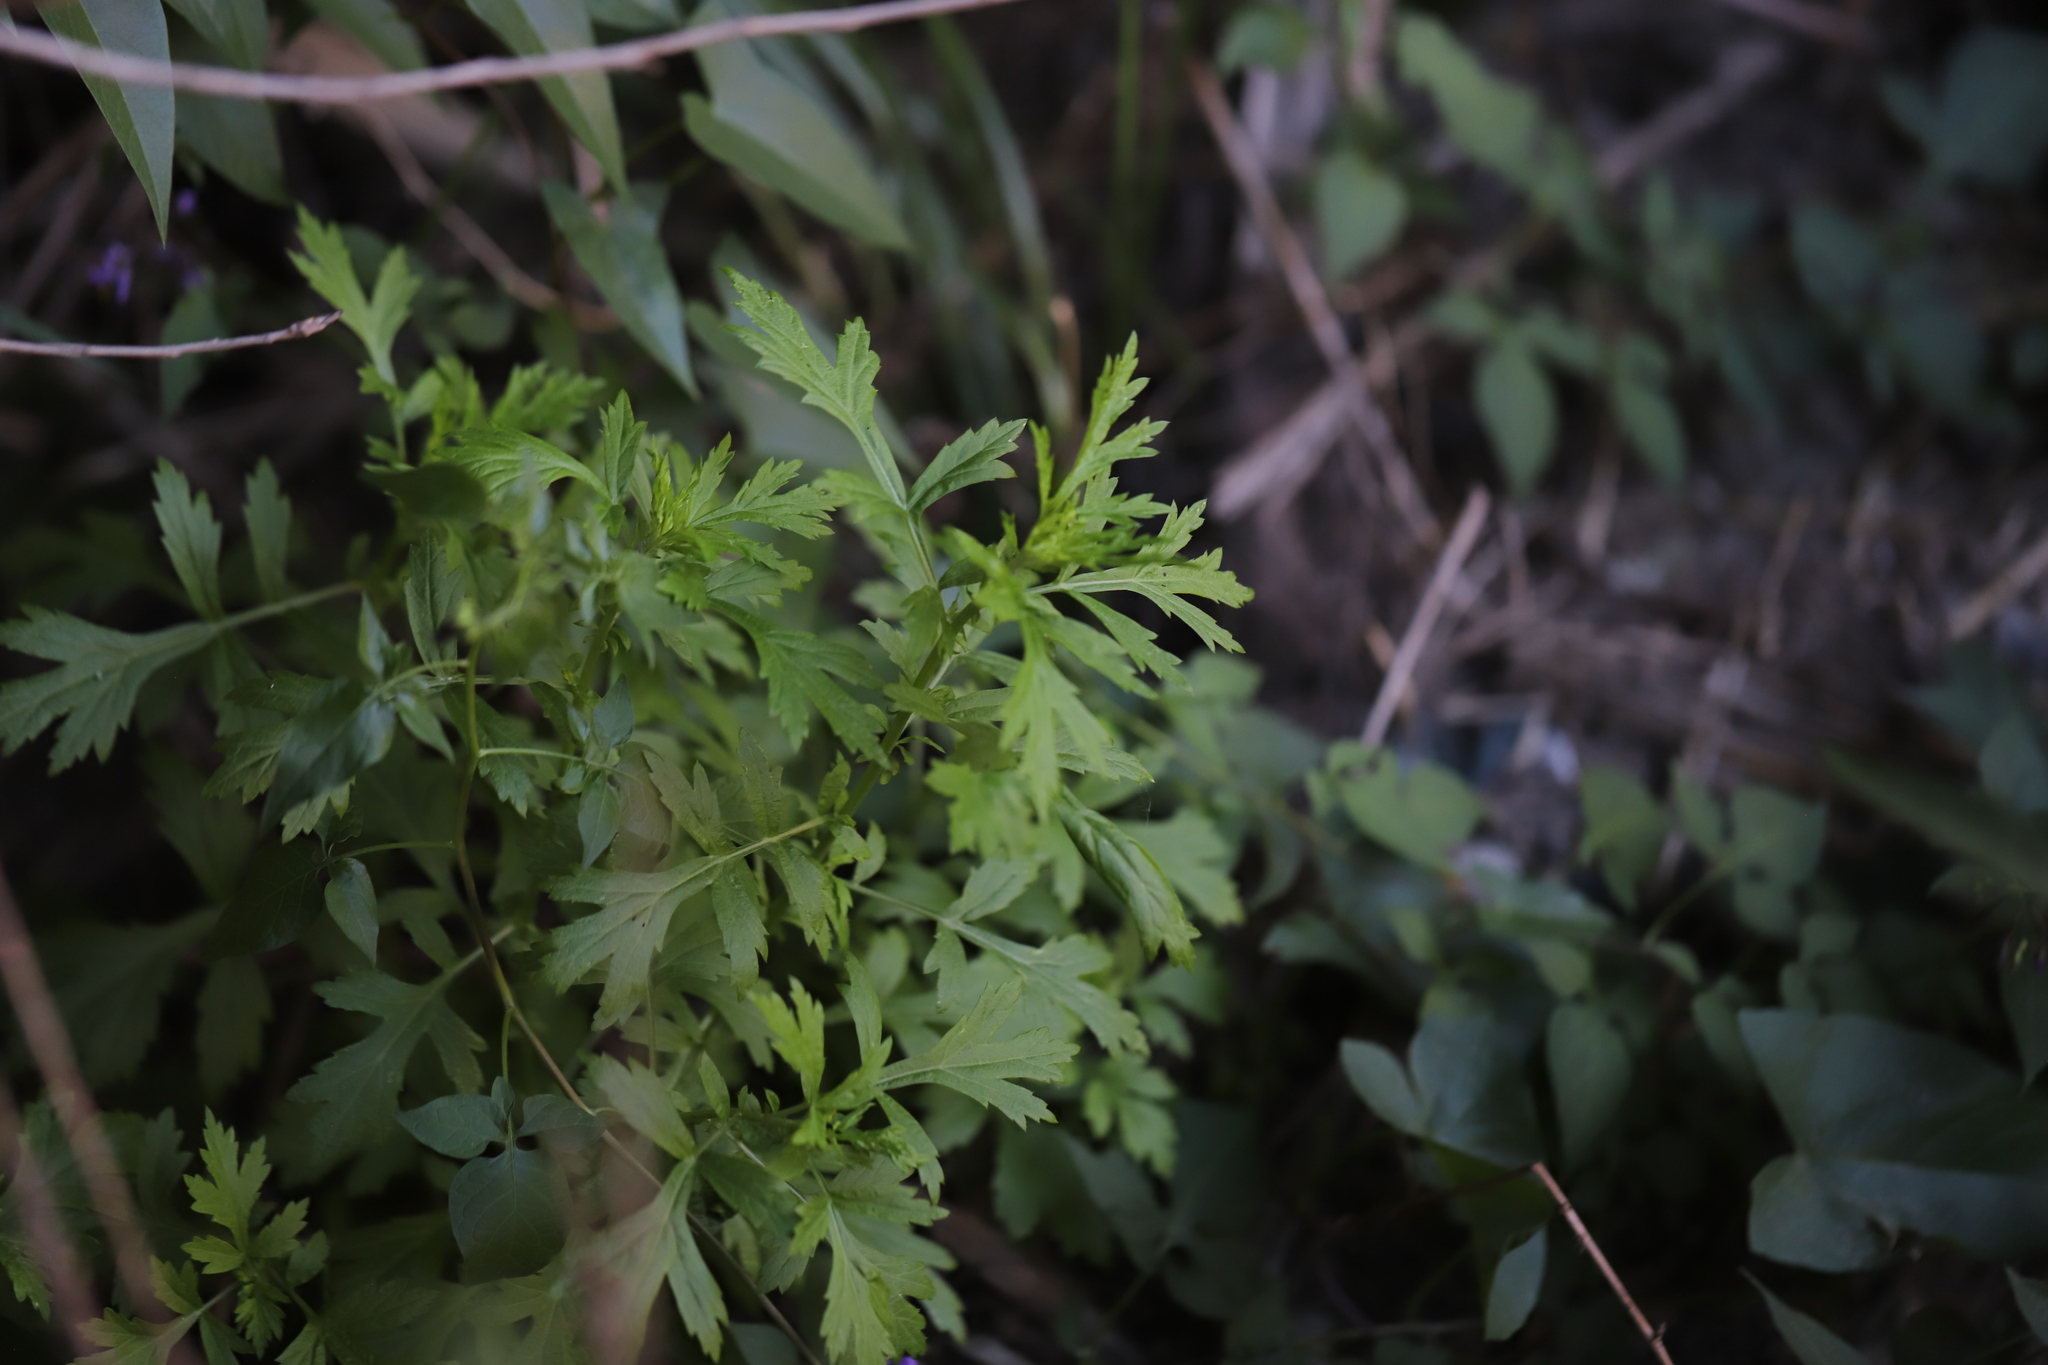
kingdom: Plantae
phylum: Tracheophyta
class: Magnoliopsida
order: Asterales
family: Asteraceae
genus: Artemisia
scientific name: Artemisia vulgaris
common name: Mugwort
